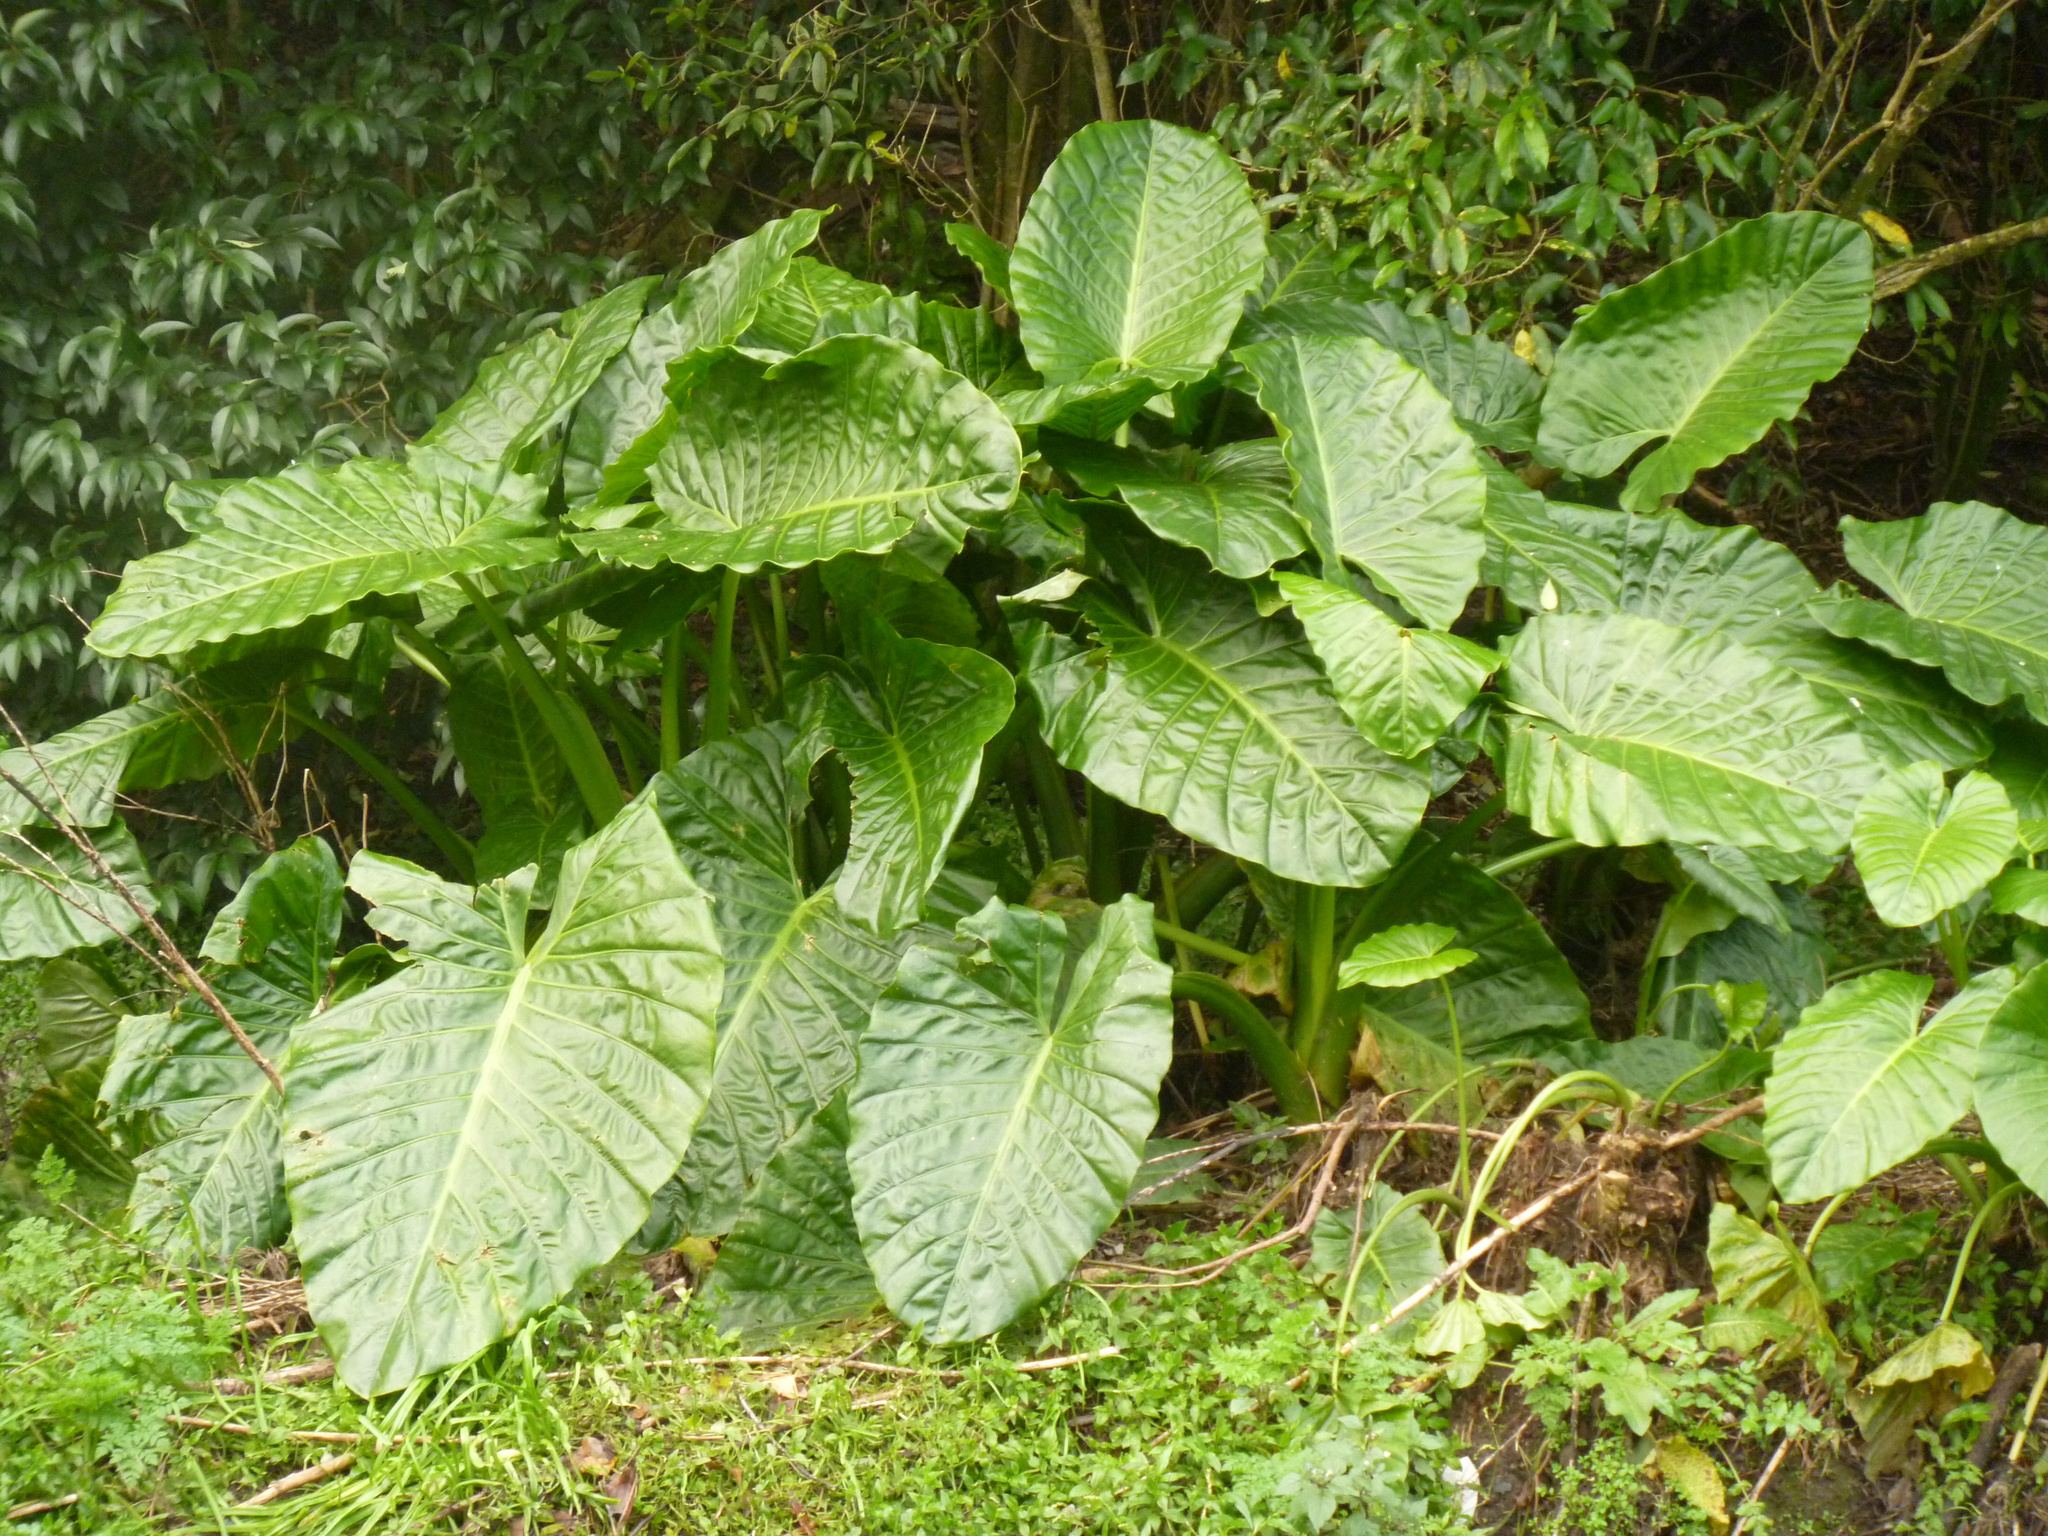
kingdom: Plantae
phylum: Tracheophyta
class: Liliopsida
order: Alismatales
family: Araceae
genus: Alocasia
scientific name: Alocasia brisbanensis
